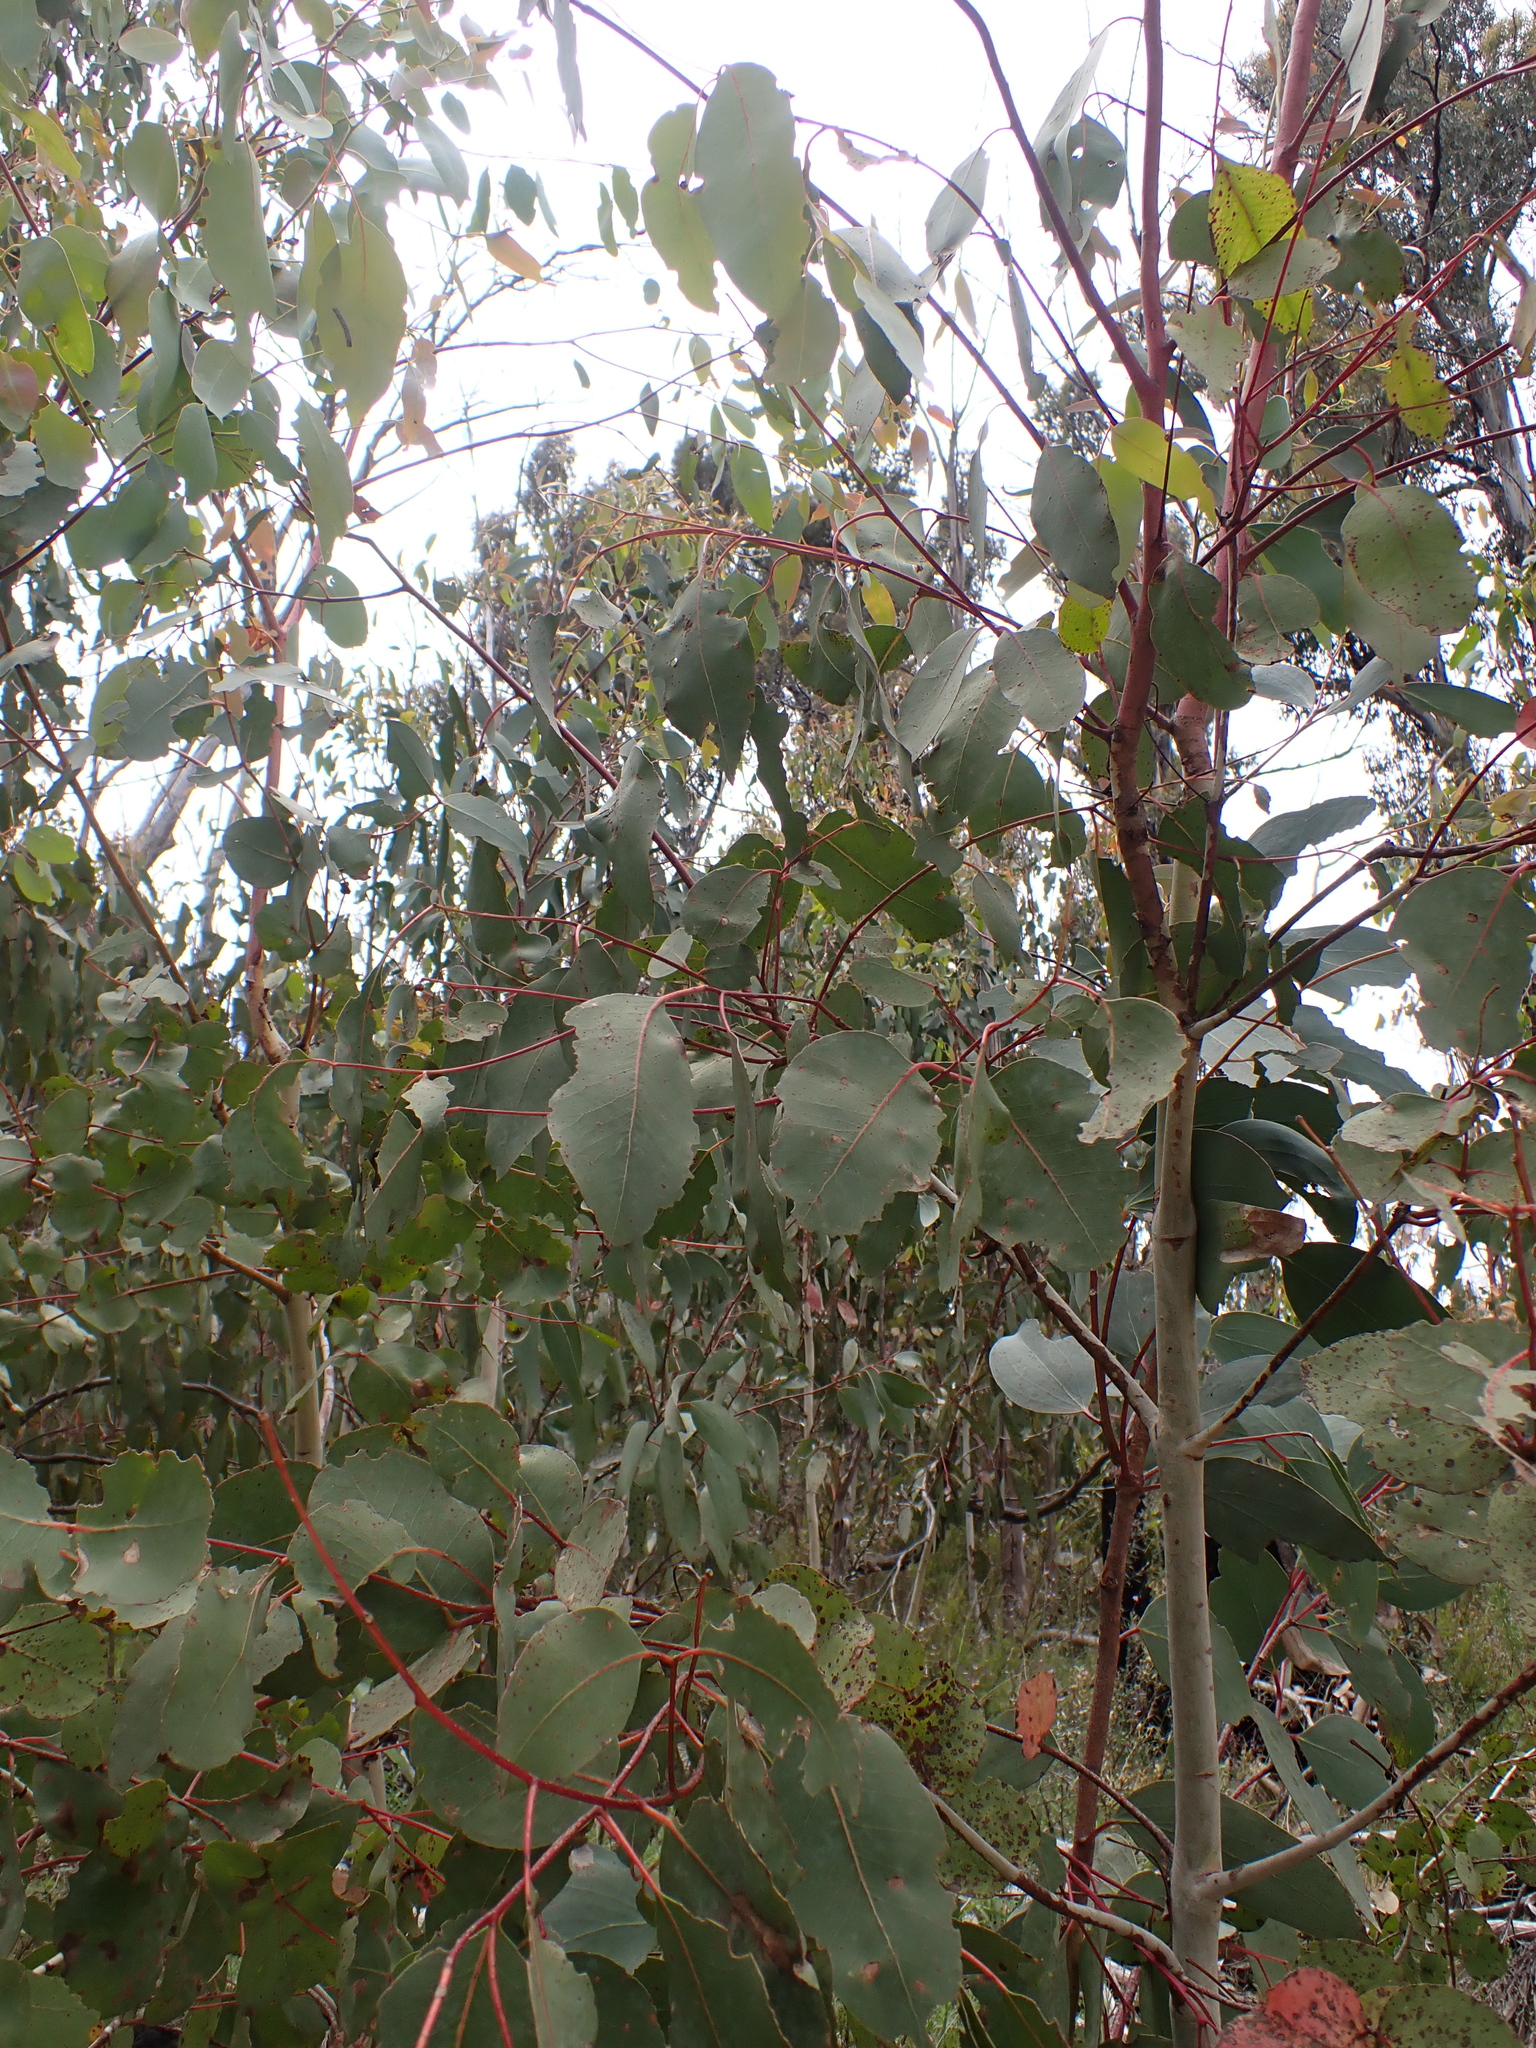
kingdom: Plantae
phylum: Tracheophyta
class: Magnoliopsida
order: Myrtales
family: Myrtaceae
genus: Eucalyptus
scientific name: Eucalyptus dalrympleana
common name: Broad-leaved kindlingbark
